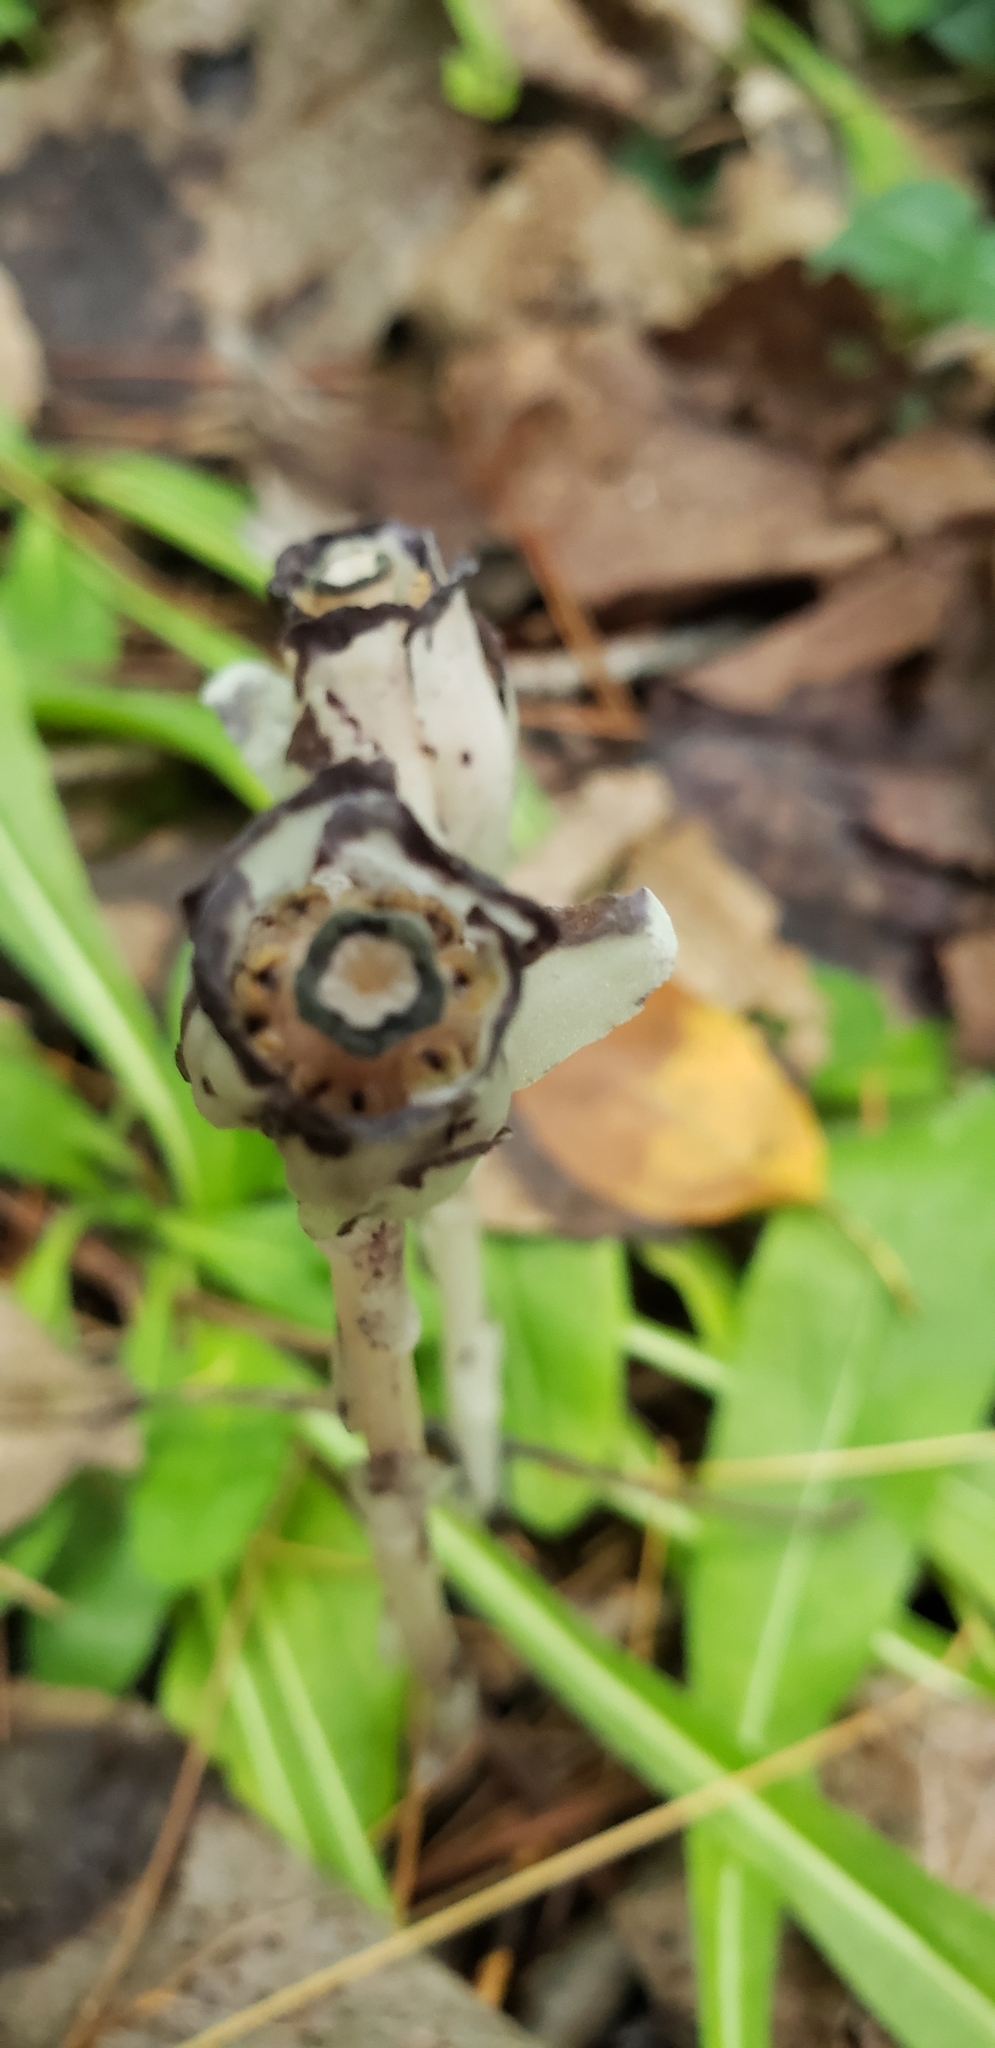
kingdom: Plantae
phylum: Tracheophyta
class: Magnoliopsida
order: Ericales
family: Ericaceae
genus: Monotropa
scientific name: Monotropa uniflora
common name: Convulsion root
